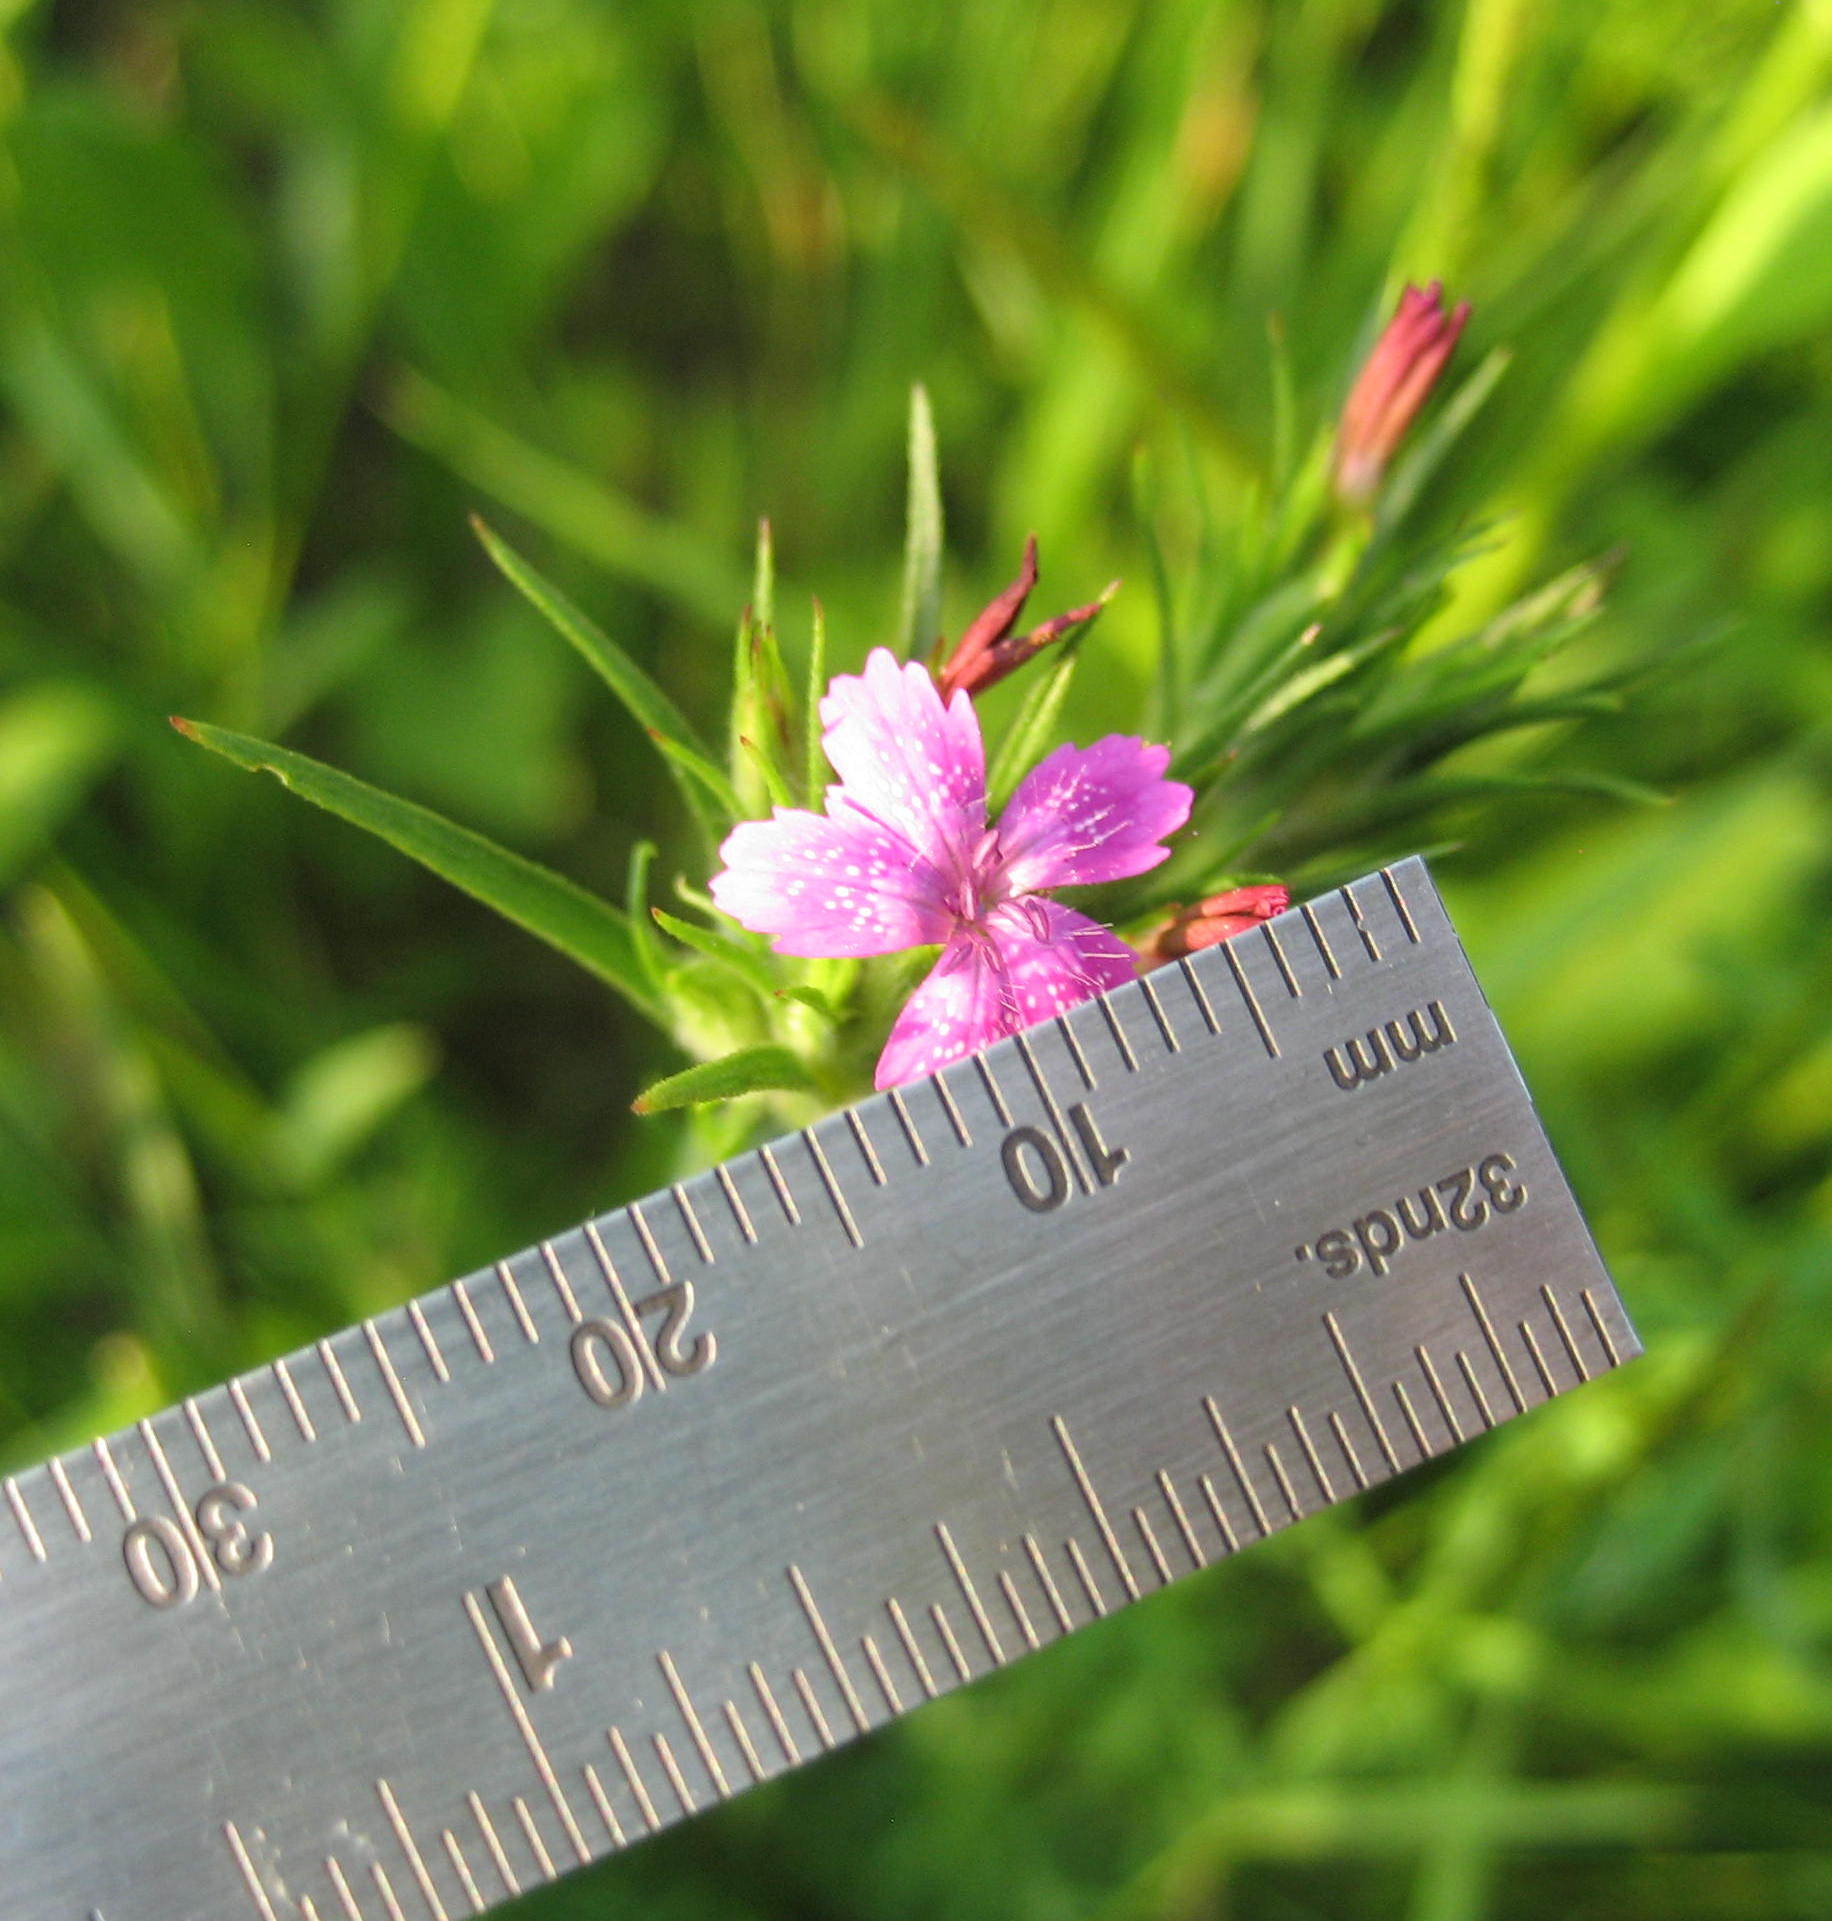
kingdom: Plantae
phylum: Tracheophyta
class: Magnoliopsida
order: Caryophyllales
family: Caryophyllaceae
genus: Dianthus
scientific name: Dianthus armeria
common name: Deptford pink
